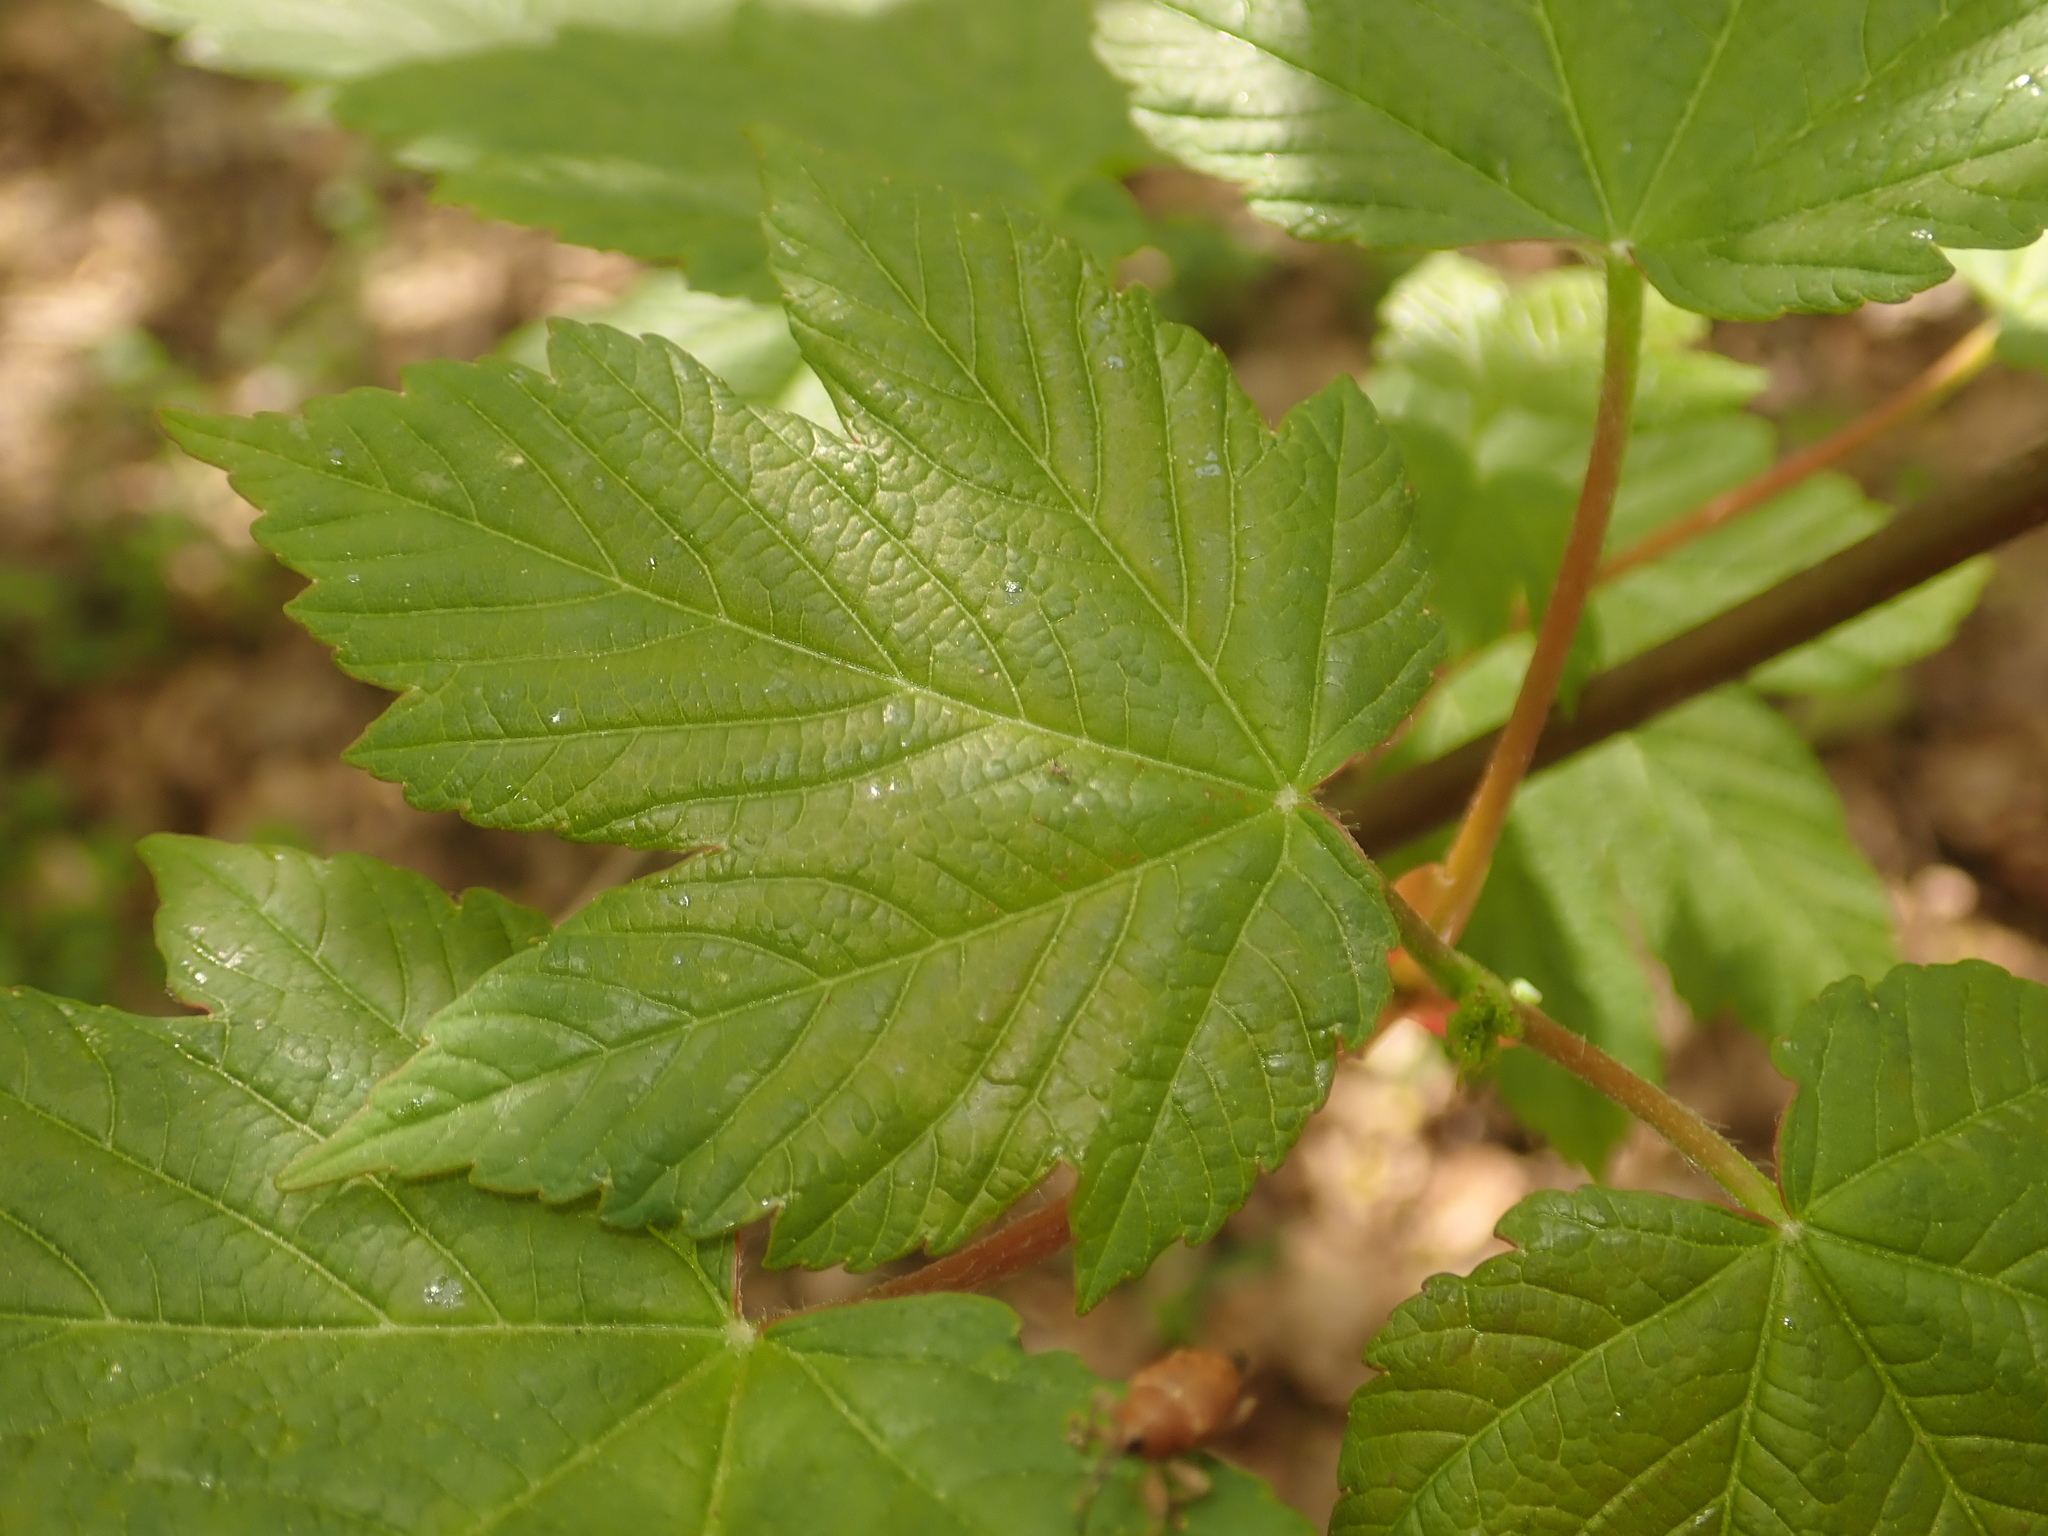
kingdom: Plantae
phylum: Tracheophyta
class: Magnoliopsida
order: Sapindales
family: Sapindaceae
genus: Acer
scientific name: Acer pseudoplatanus
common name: Sycamore
